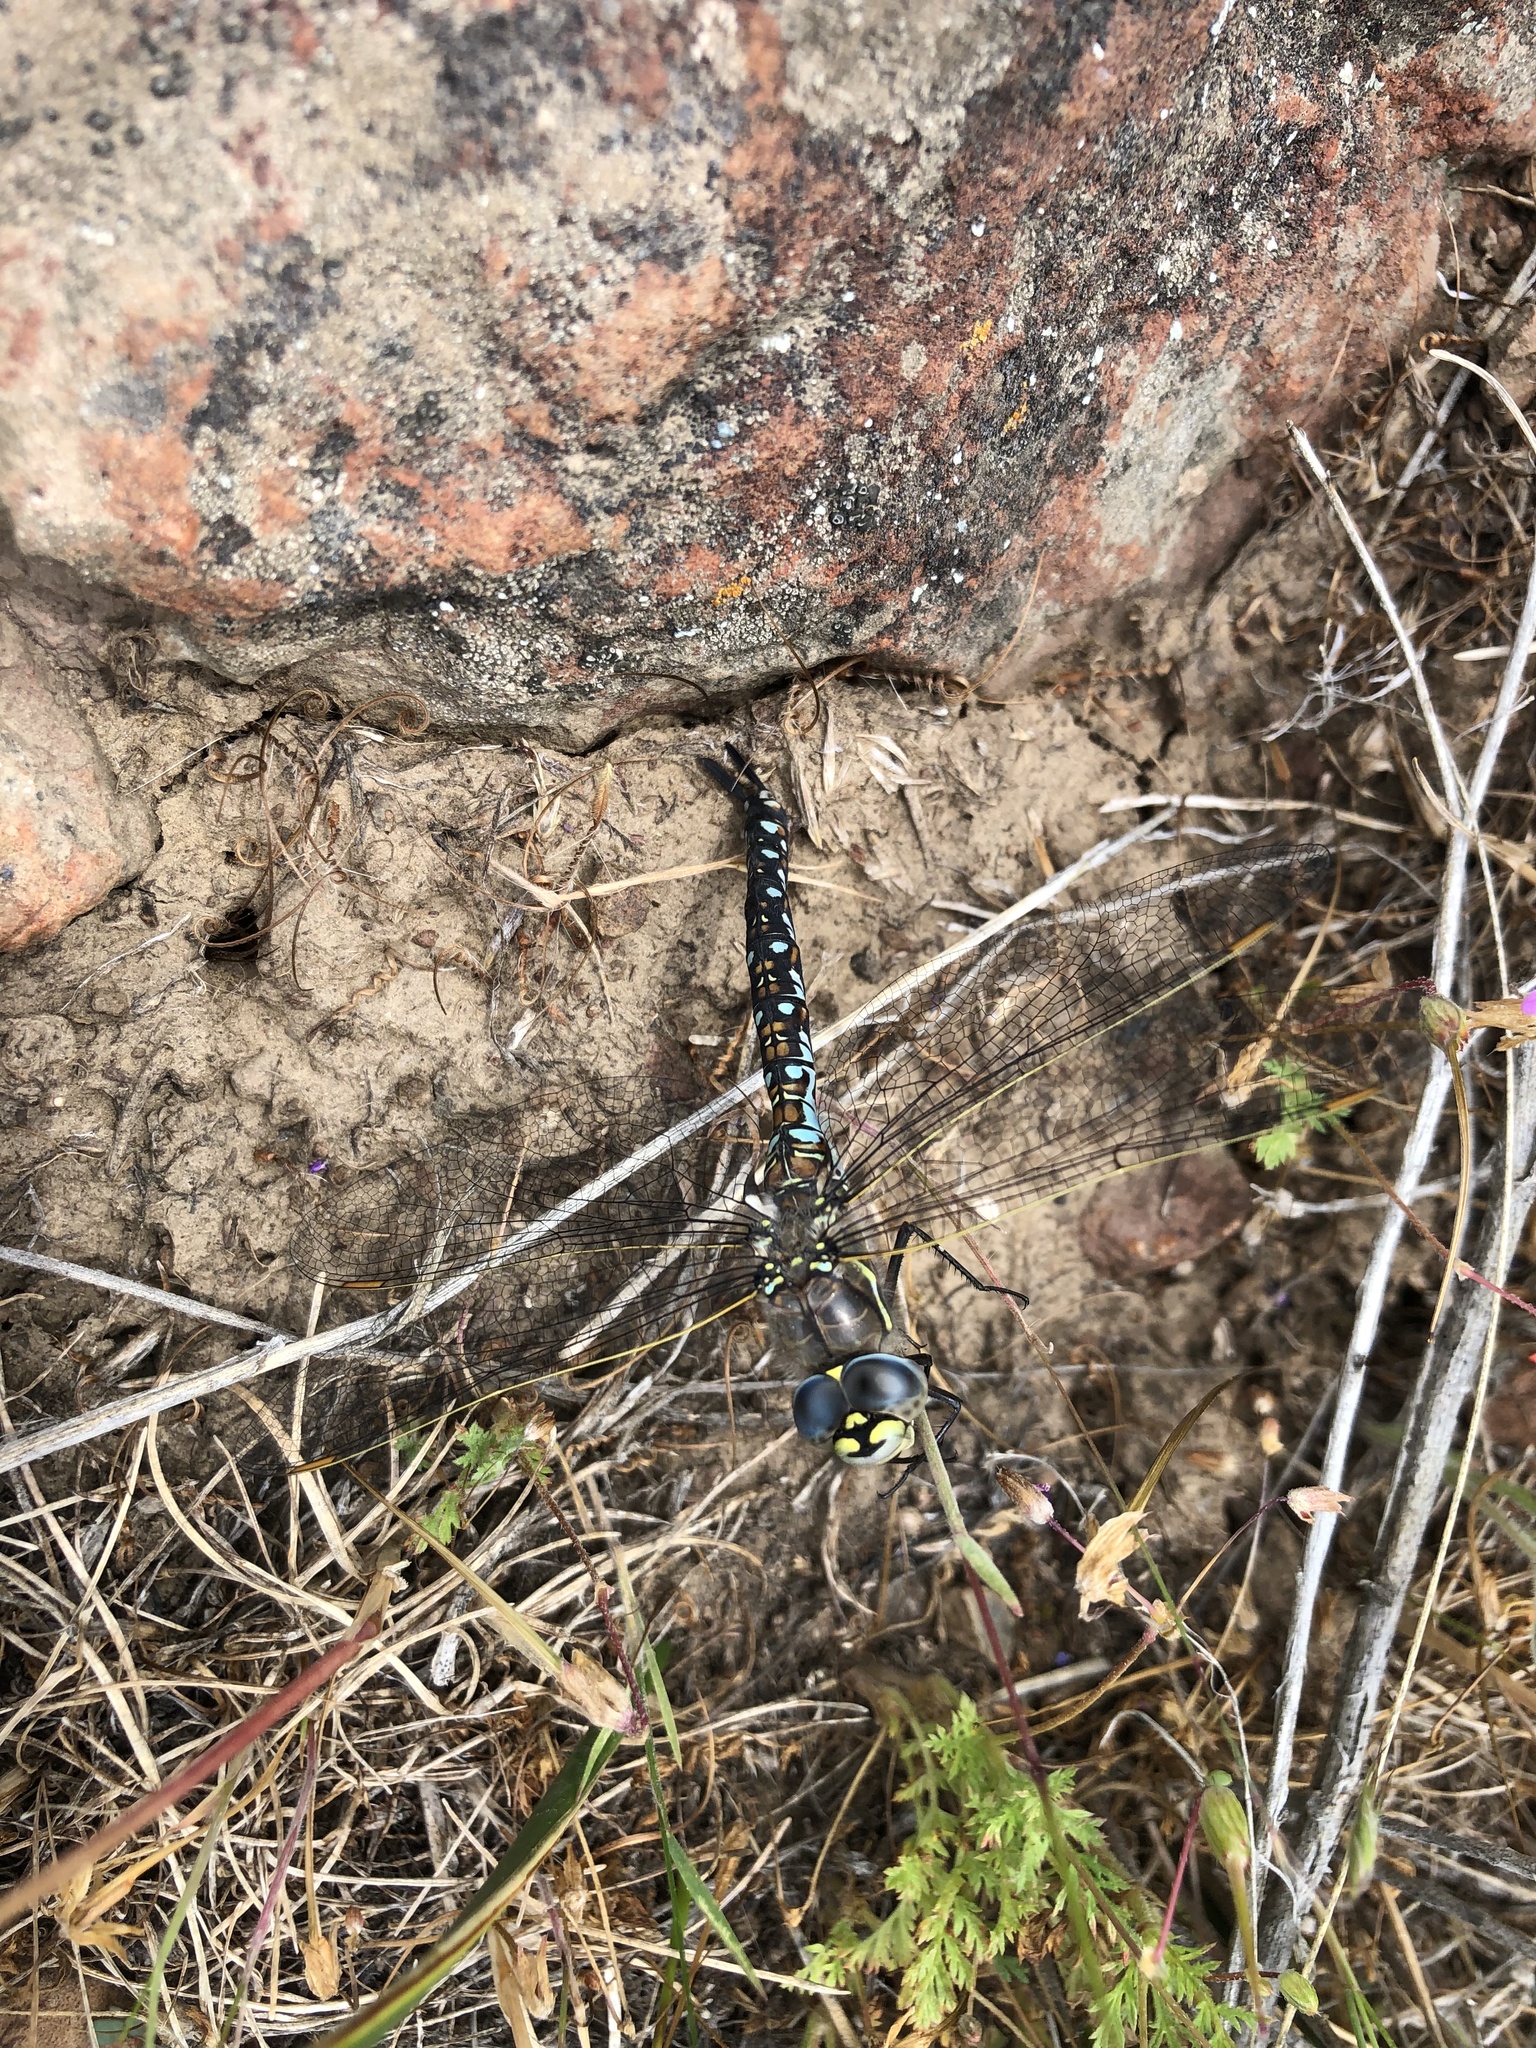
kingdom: Animalia
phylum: Arthropoda
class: Insecta
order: Odonata
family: Aeshnidae
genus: Rhionaeschna
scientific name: Rhionaeschna californica
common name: California darner
